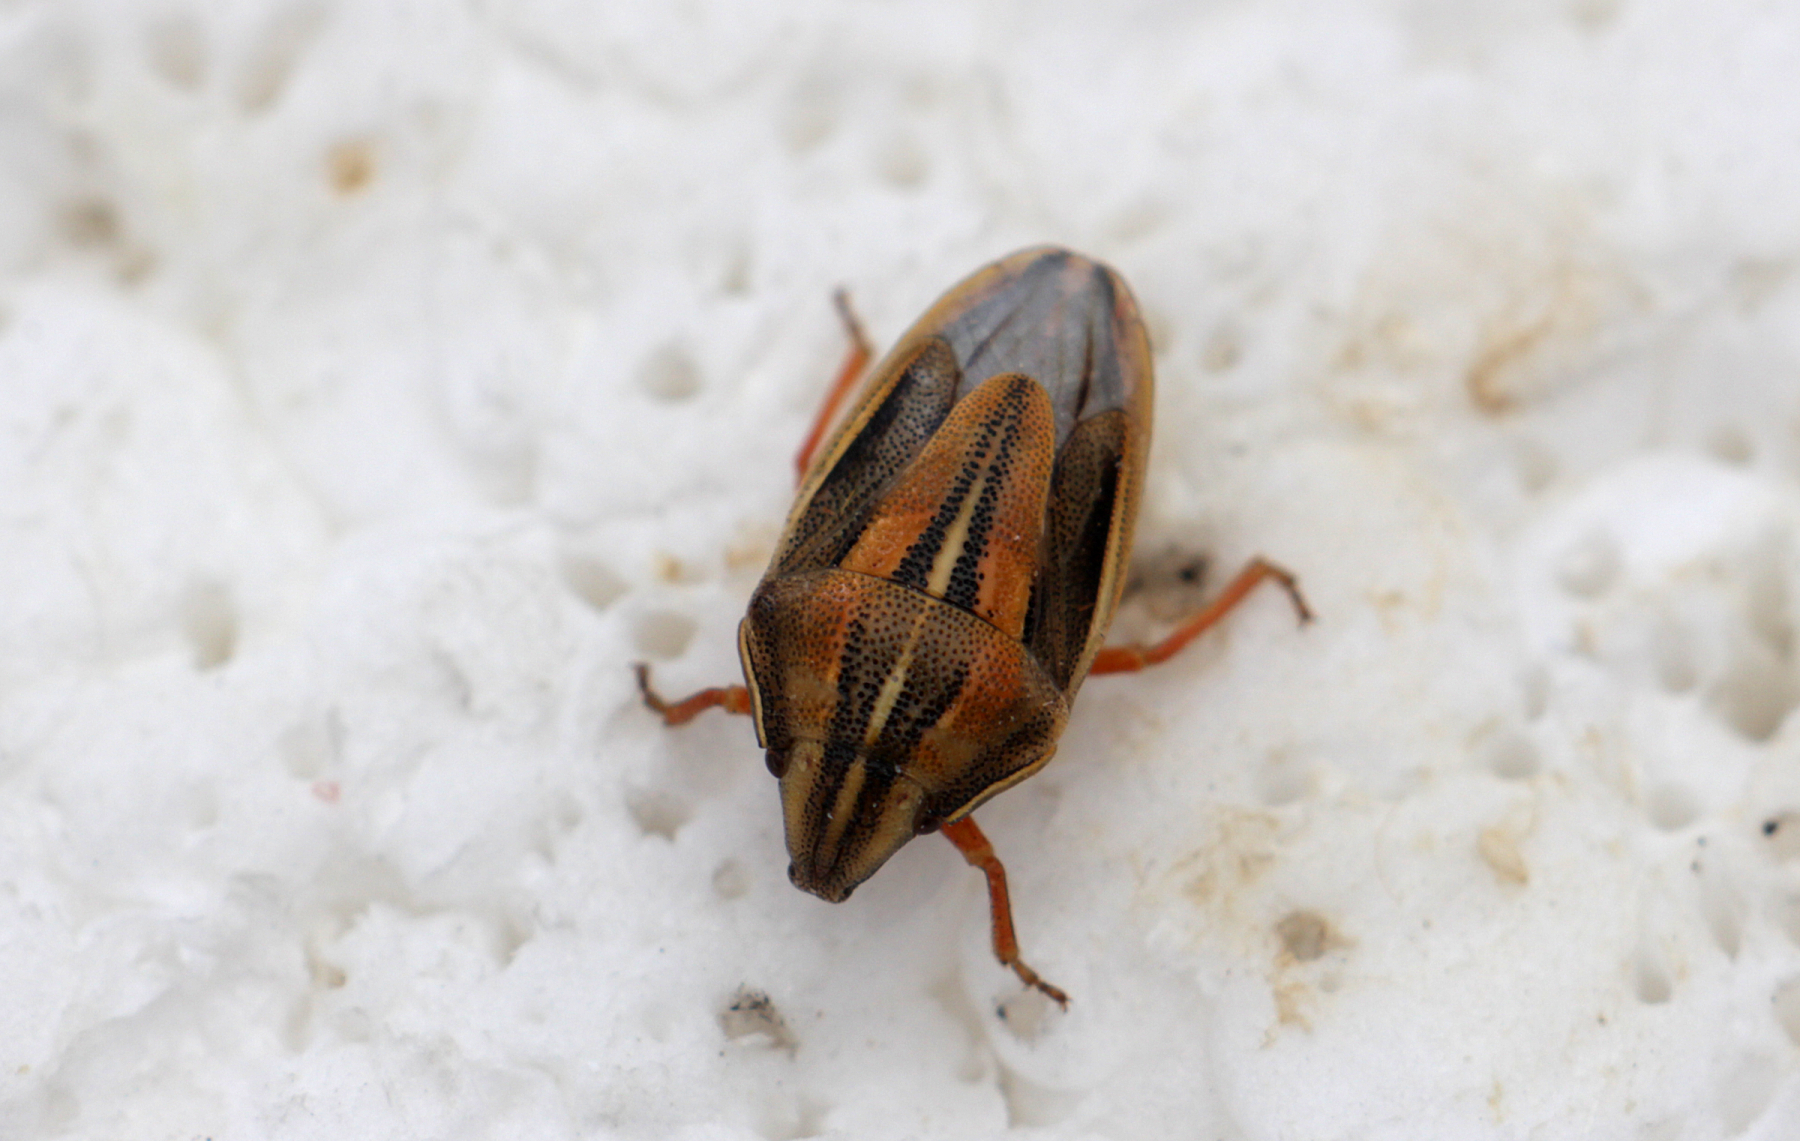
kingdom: Animalia
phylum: Arthropoda
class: Insecta
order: Hemiptera
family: Pentatomidae
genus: Aelia
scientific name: Aelia klugii
